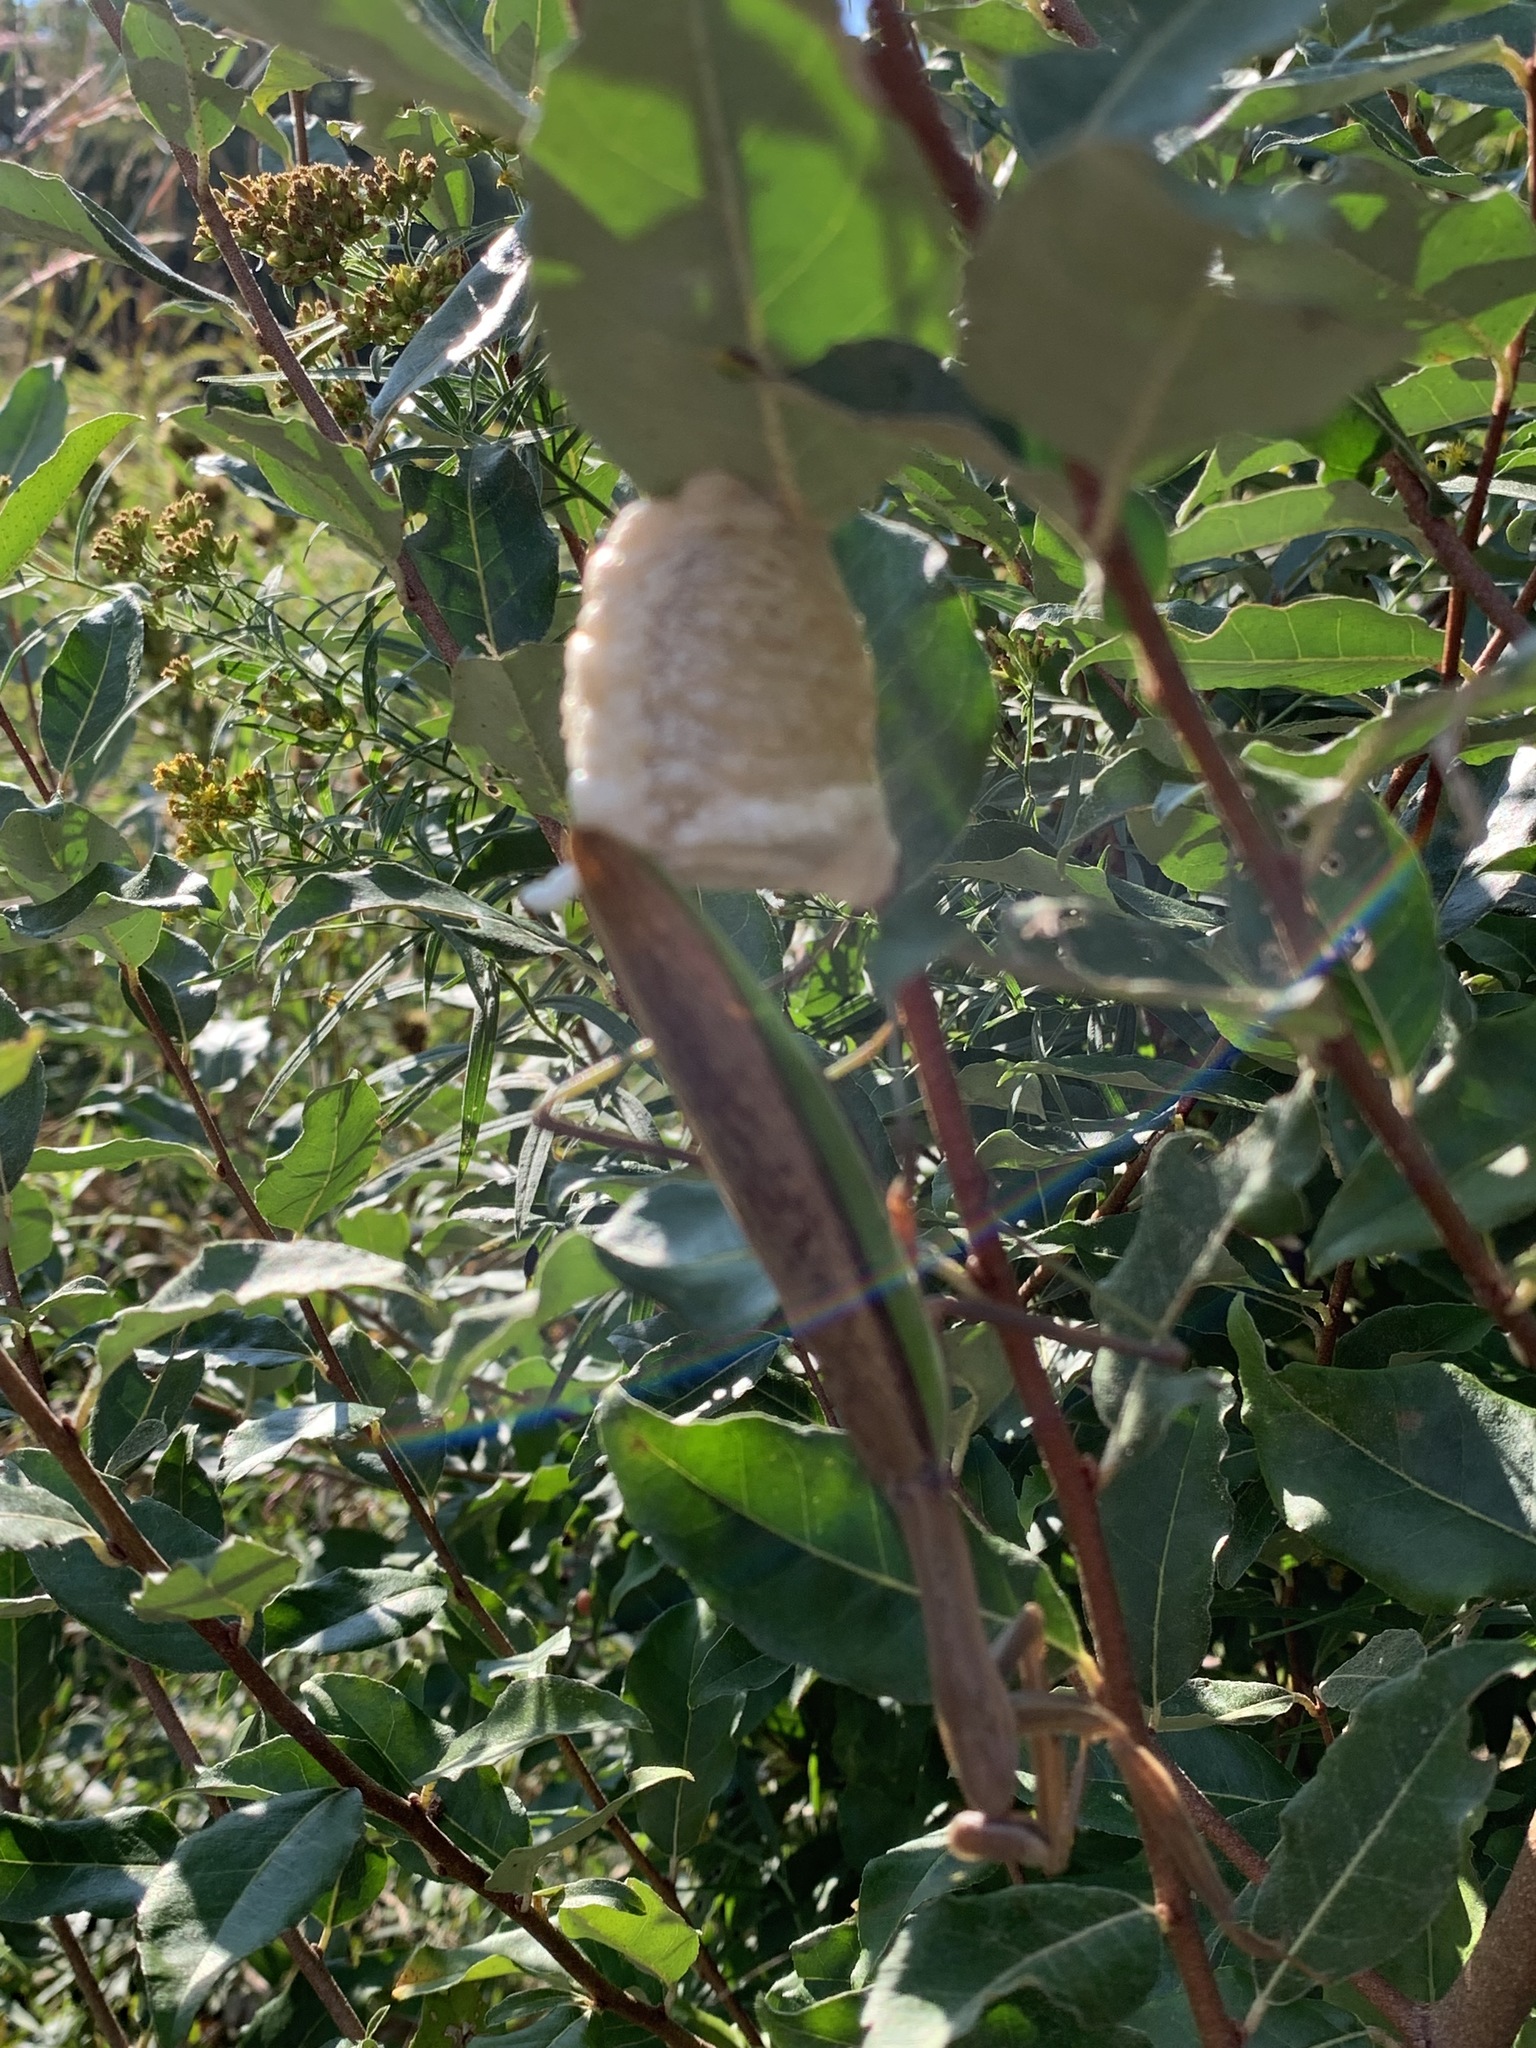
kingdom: Animalia
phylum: Arthropoda
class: Insecta
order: Mantodea
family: Mantidae
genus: Tenodera
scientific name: Tenodera sinensis
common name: Chinese mantis
